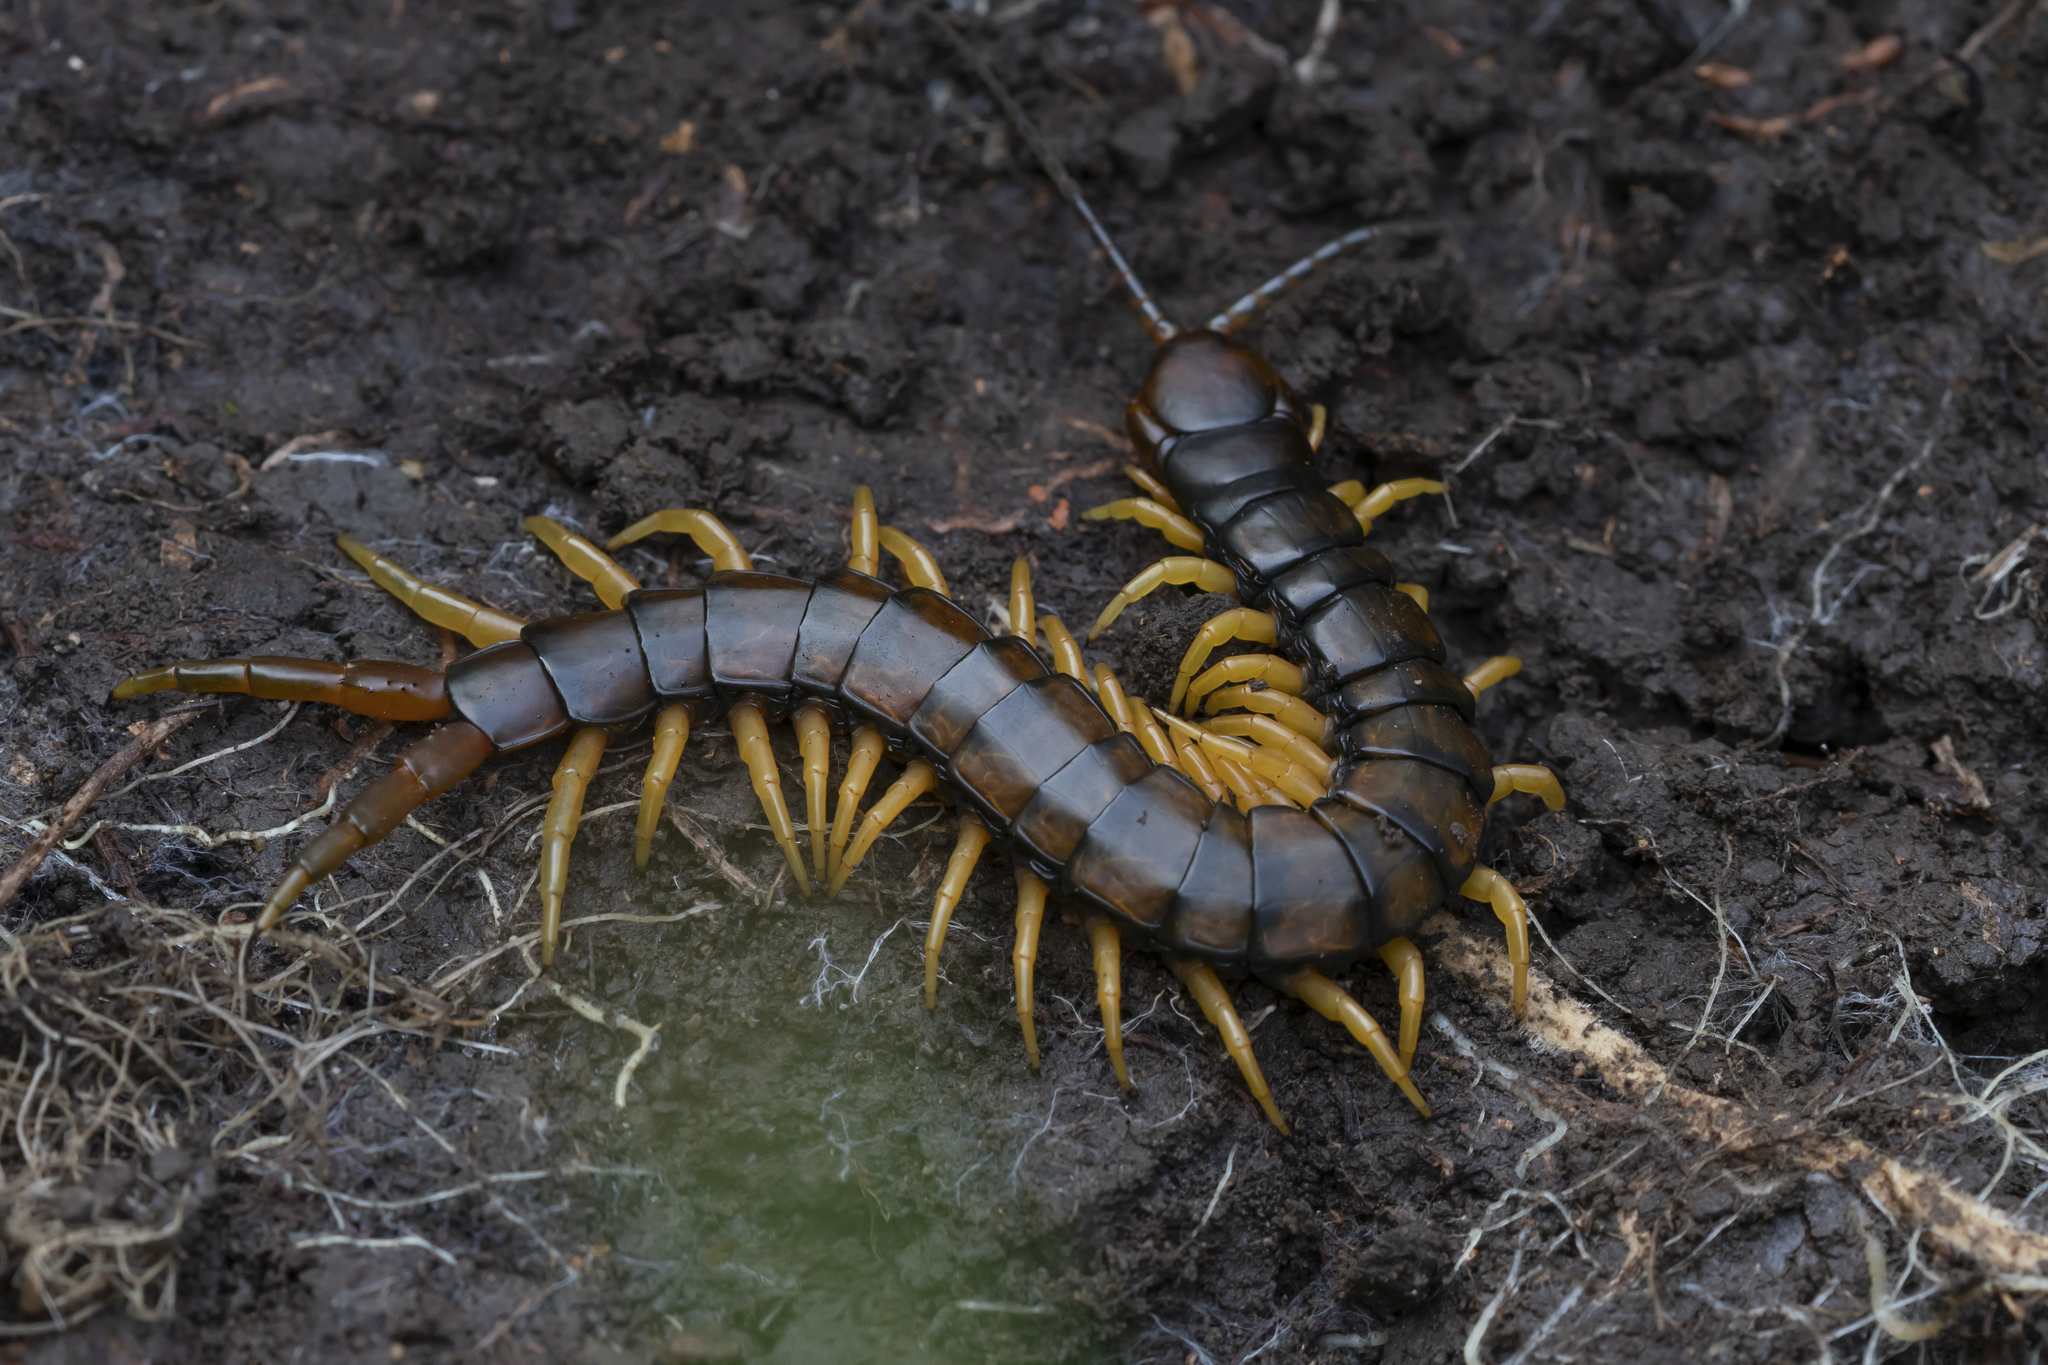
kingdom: Animalia
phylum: Arthropoda
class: Chilopoda
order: Scolopendromorpha
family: Scolopendridae
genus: Scolopendra
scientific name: Scolopendra cingulata
